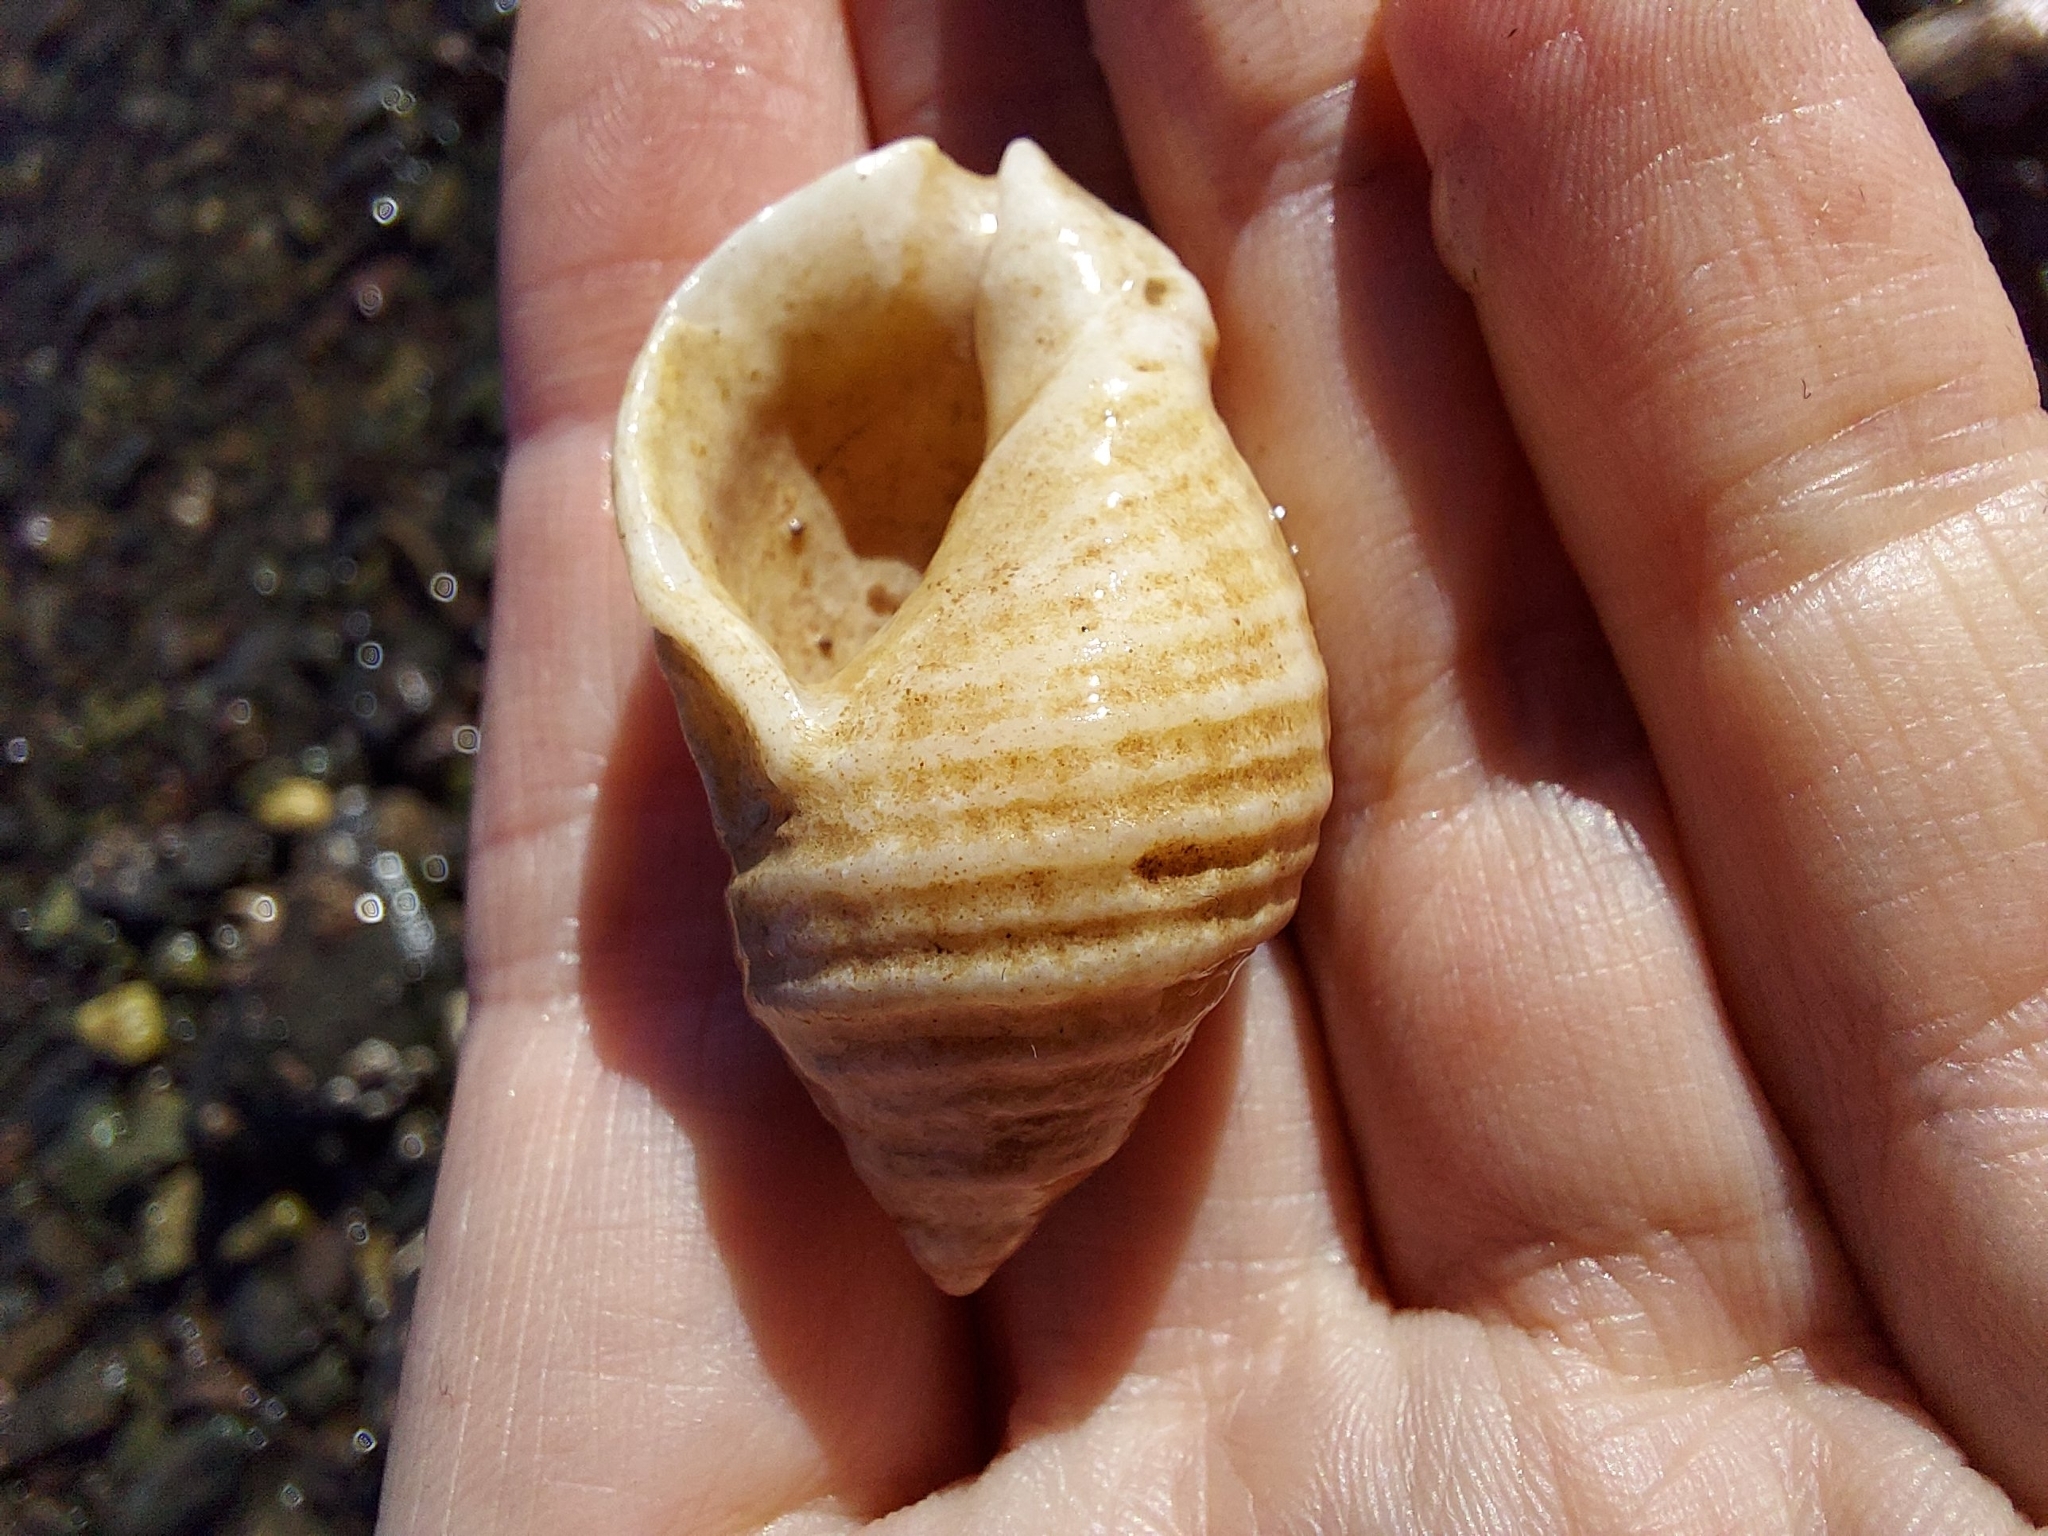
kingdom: Animalia
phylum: Mollusca
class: Gastropoda
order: Neogastropoda
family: Muricidae
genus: Nucella
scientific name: Nucella lapillus
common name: Dog whelk
